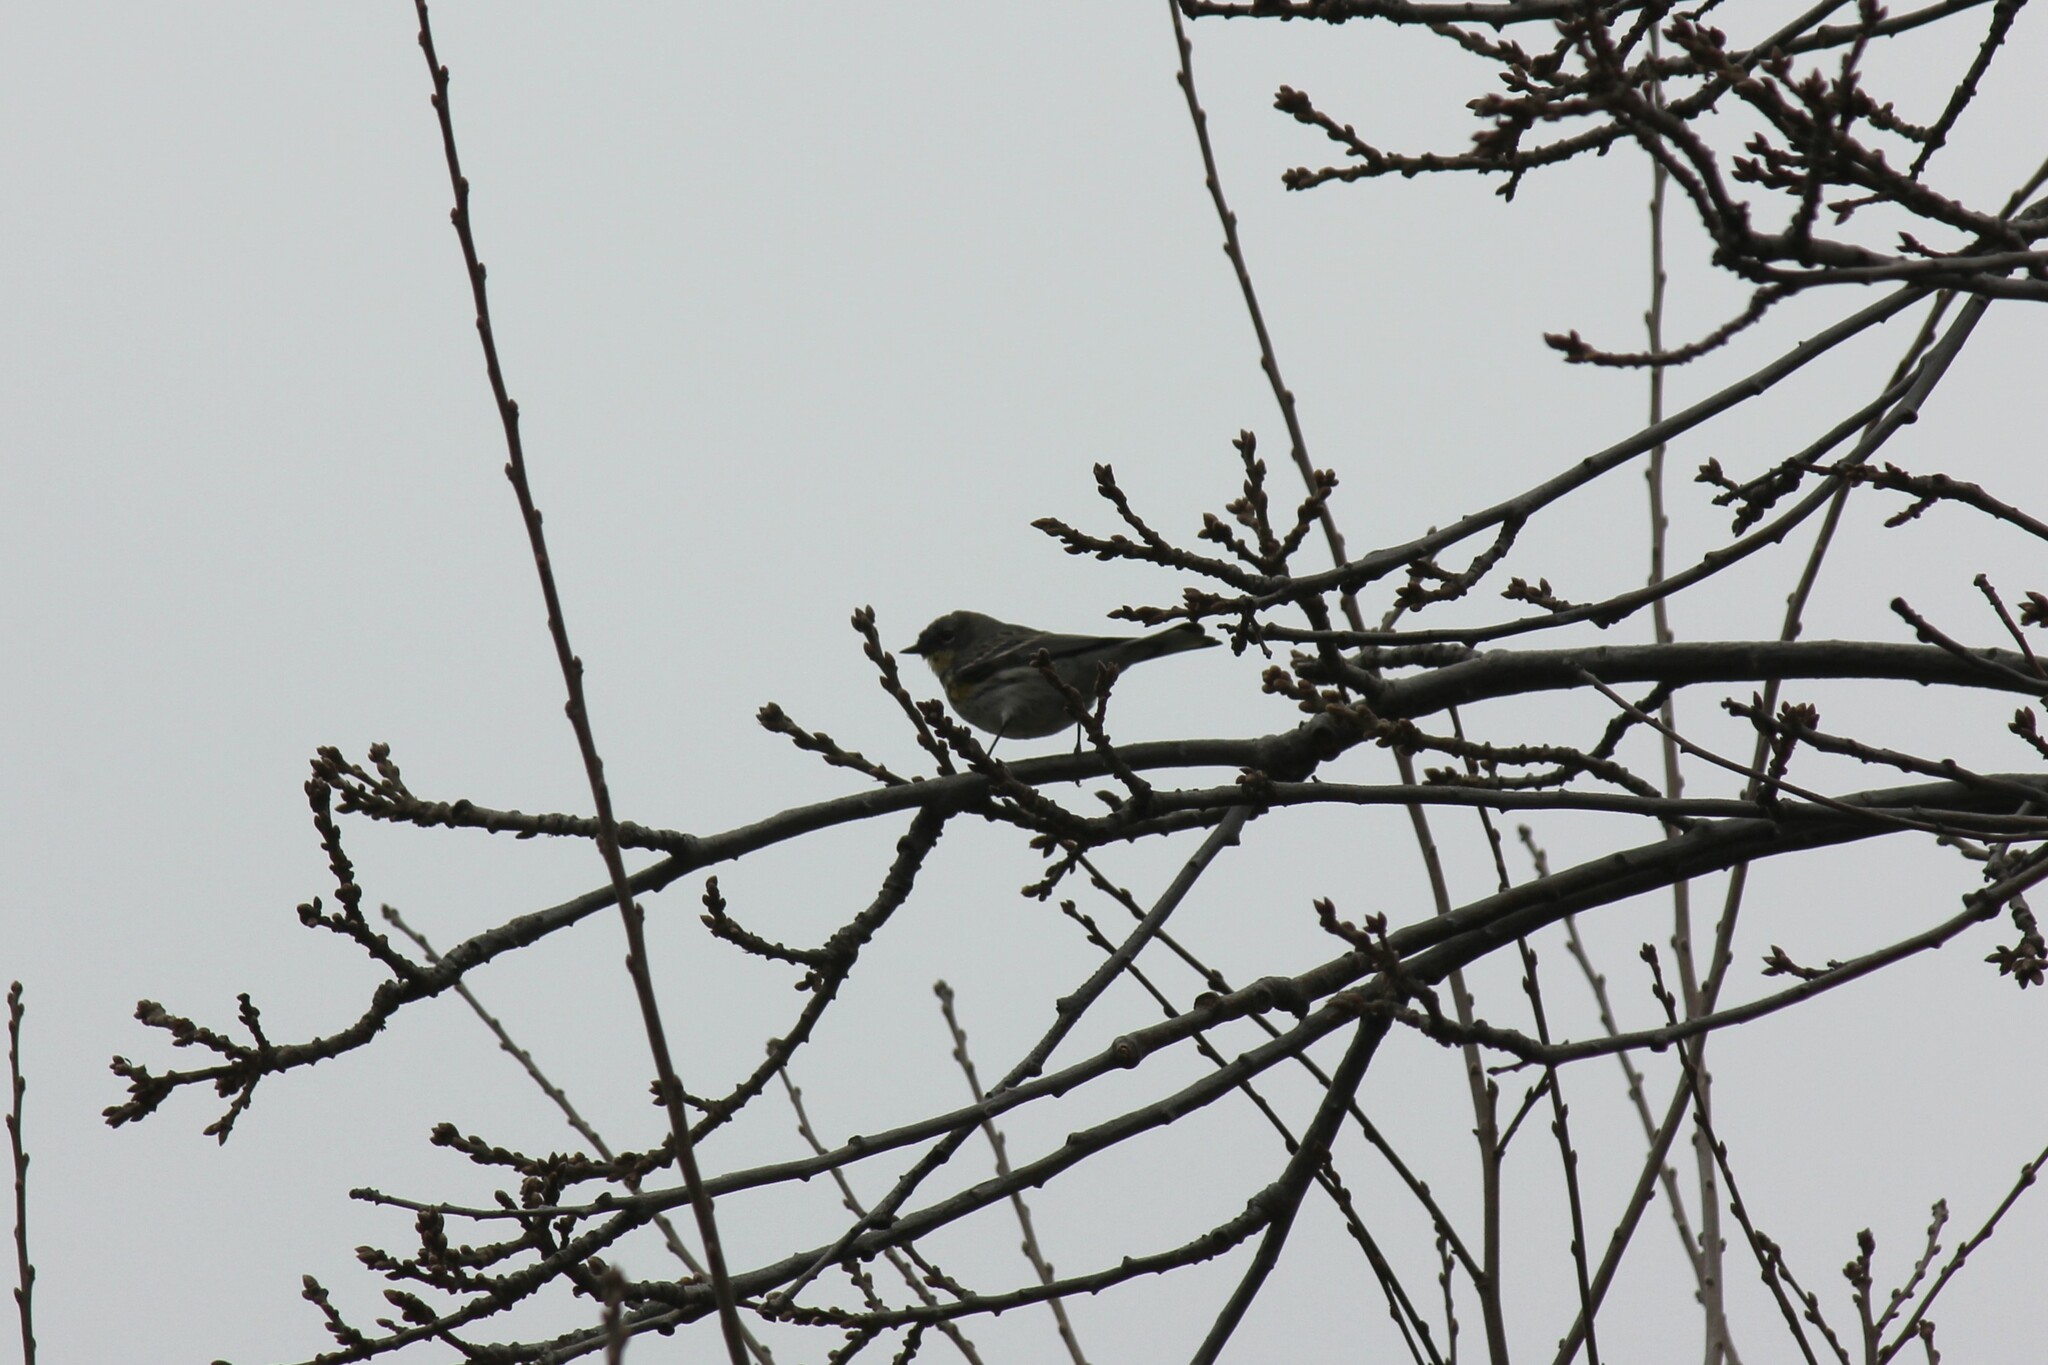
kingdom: Animalia
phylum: Chordata
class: Aves
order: Passeriformes
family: Parulidae
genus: Setophaga
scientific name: Setophaga coronata
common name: Myrtle warbler
